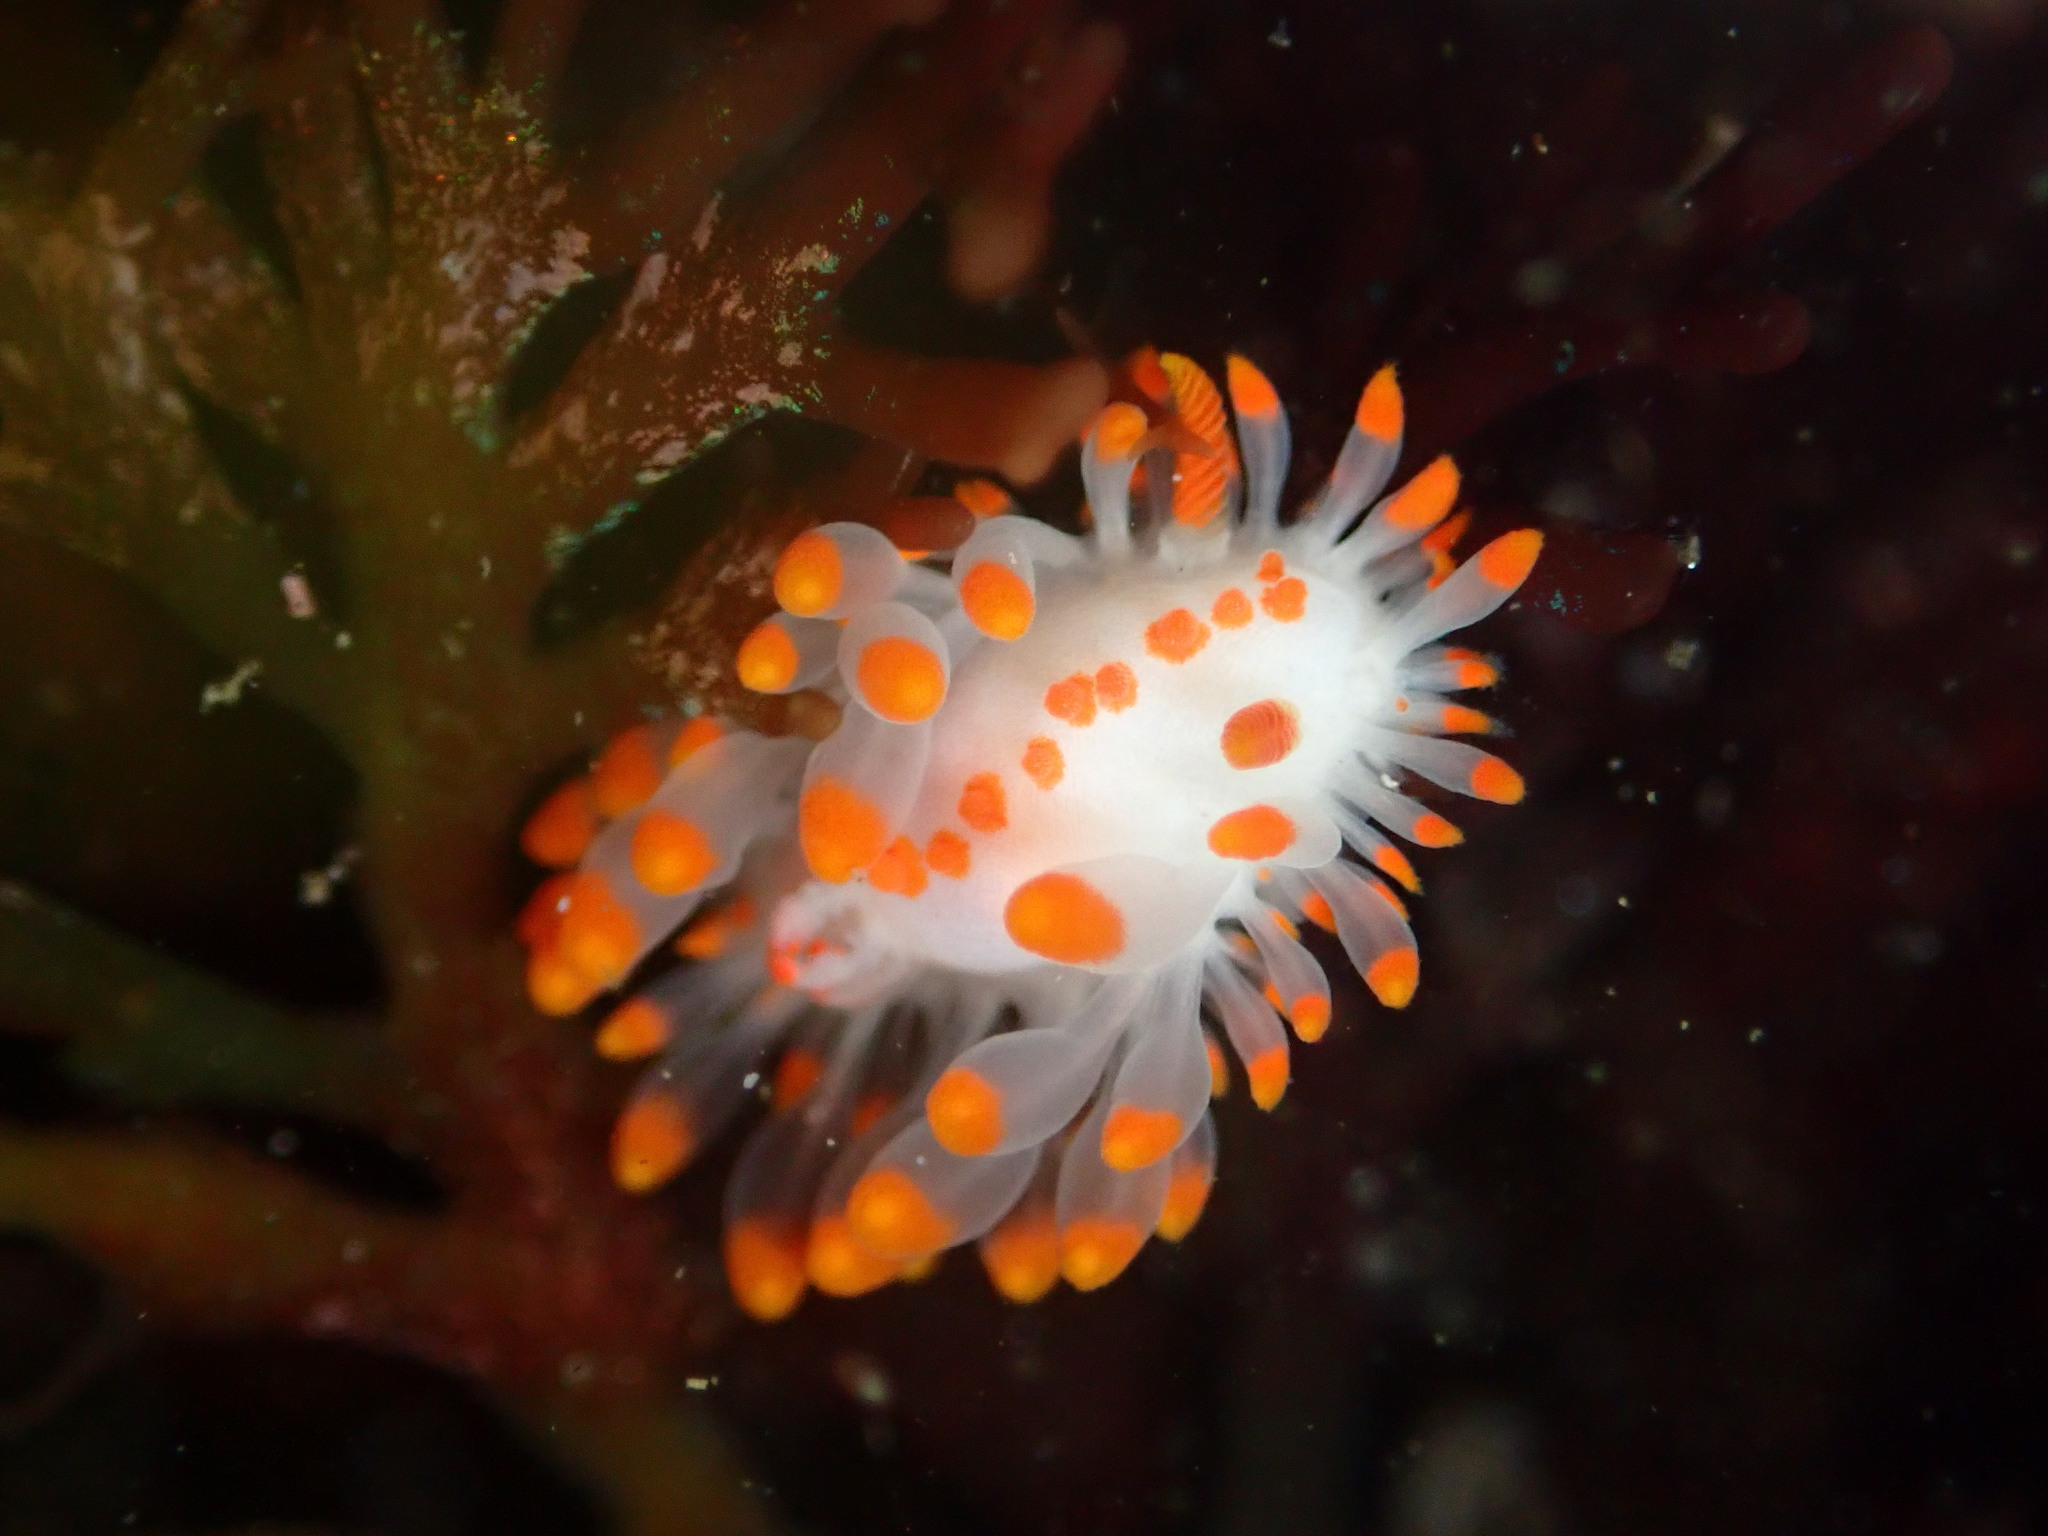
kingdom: Animalia
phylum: Mollusca
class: Gastropoda
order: Nudibranchia
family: Polyceridae
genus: Limacia
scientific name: Limacia mcdonaldi
